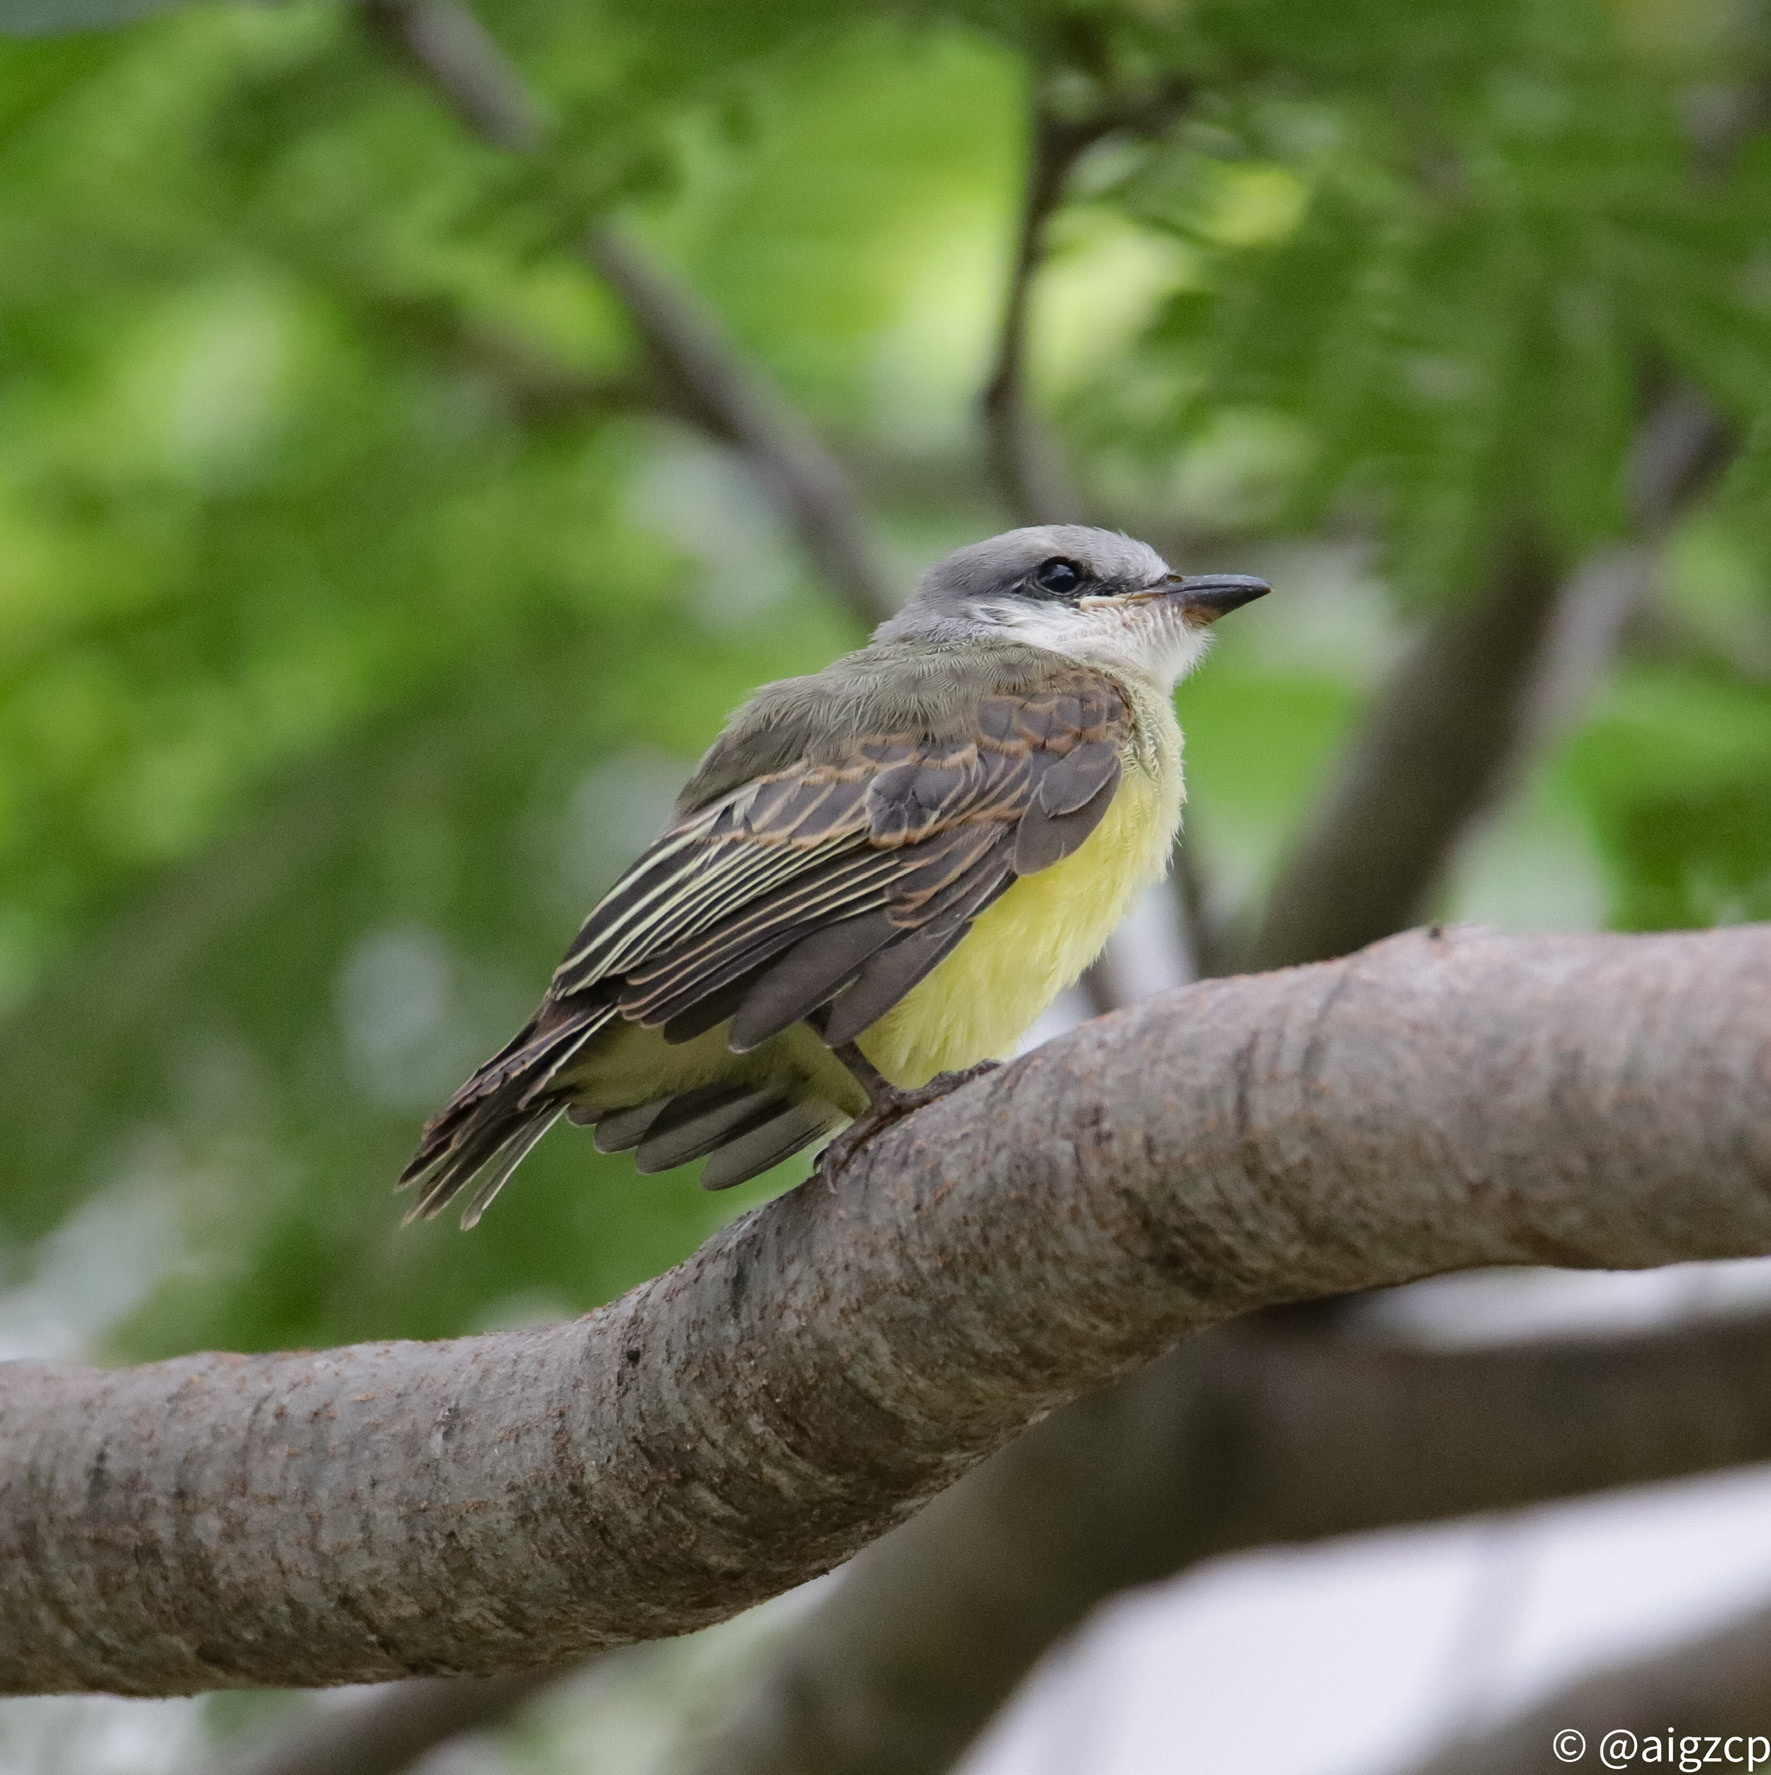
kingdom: Animalia
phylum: Chordata
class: Aves
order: Passeriformes
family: Tyrannidae
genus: Tyrannus
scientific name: Tyrannus melancholicus
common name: Tropical kingbird
